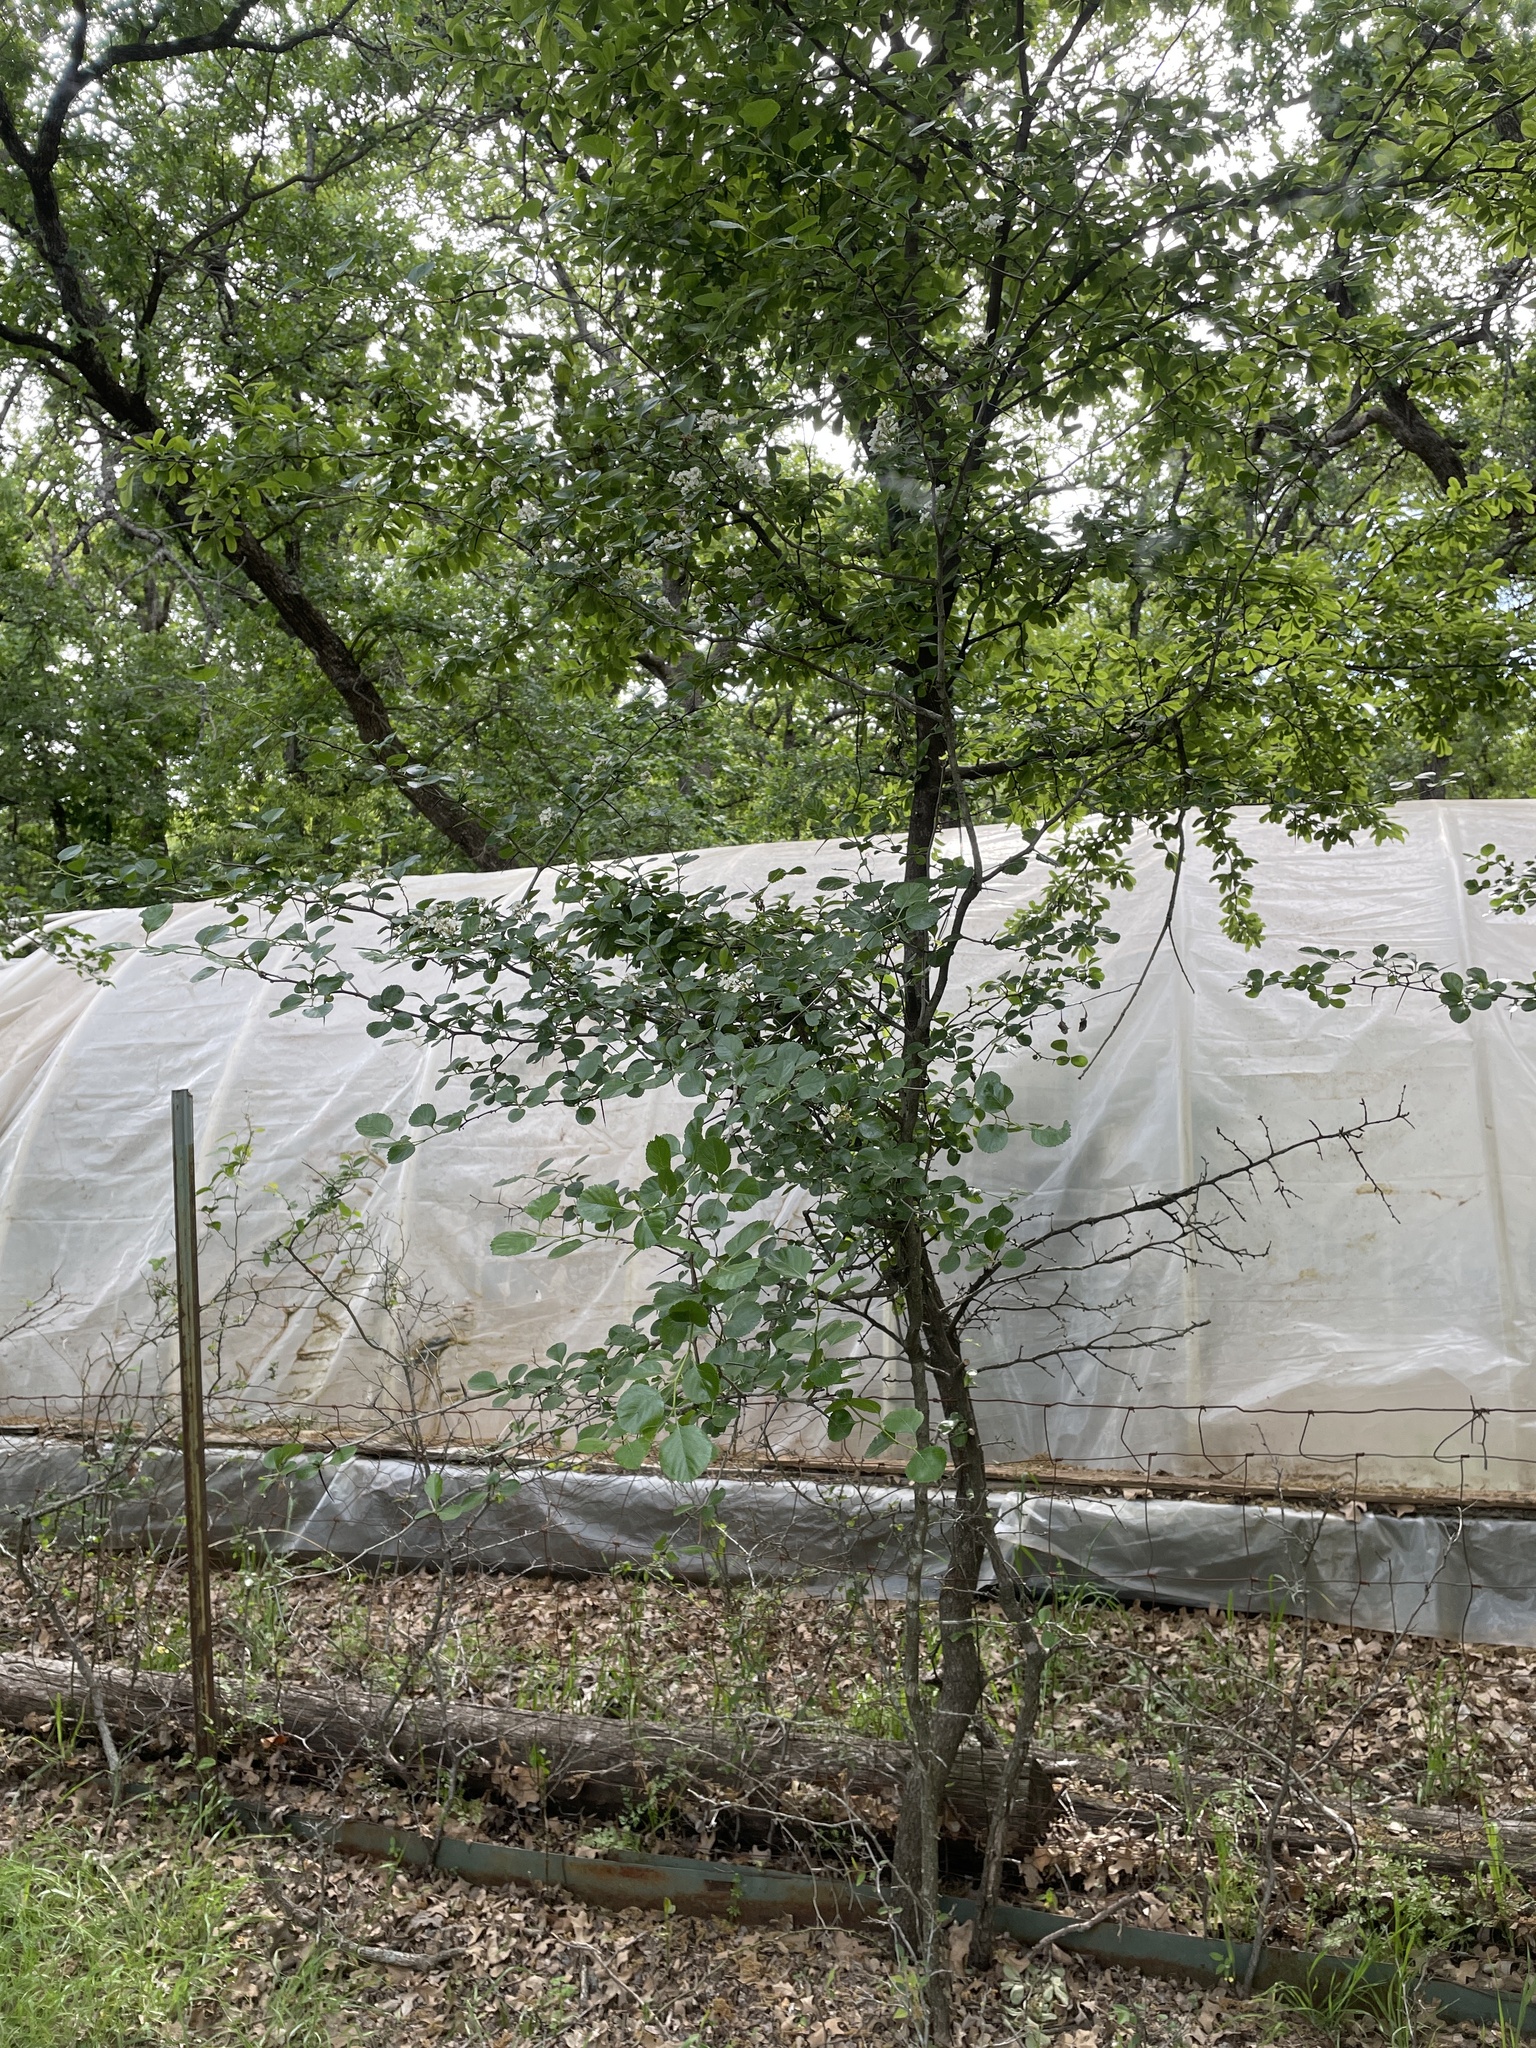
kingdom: Plantae
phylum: Tracheophyta
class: Magnoliopsida
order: Rosales
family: Rosaceae
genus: Crataegus
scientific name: Crataegus reverchonii
